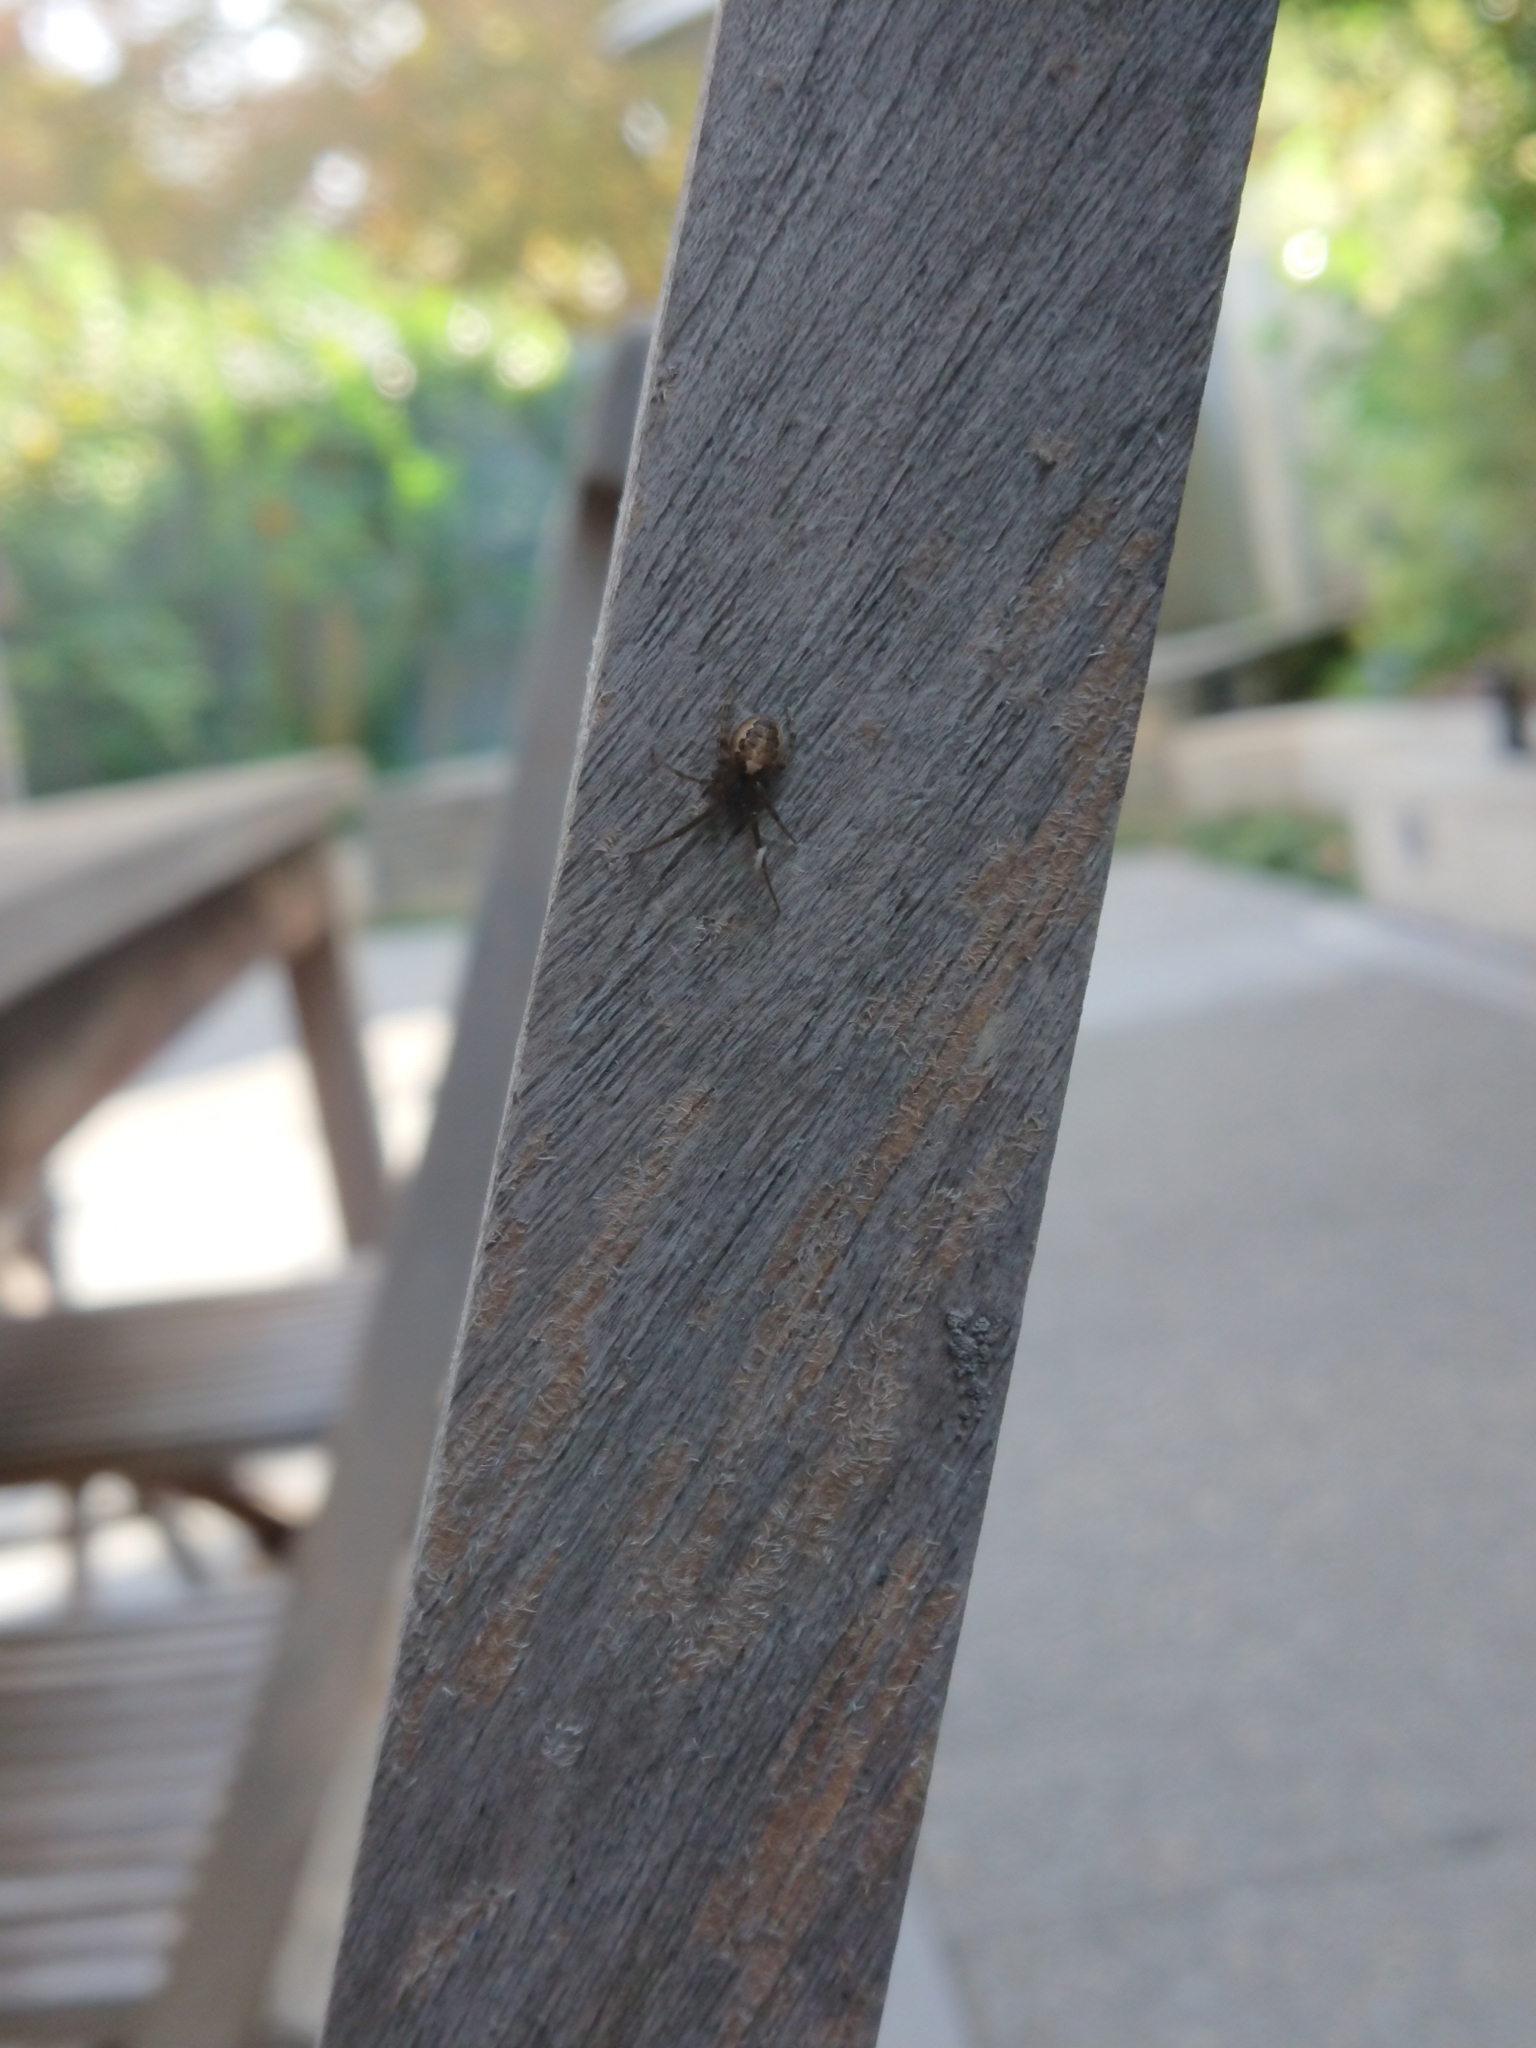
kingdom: Animalia
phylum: Arthropoda
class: Arachnida
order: Araneae
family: Araneidae
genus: Zygiella
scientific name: Zygiella x-notata
